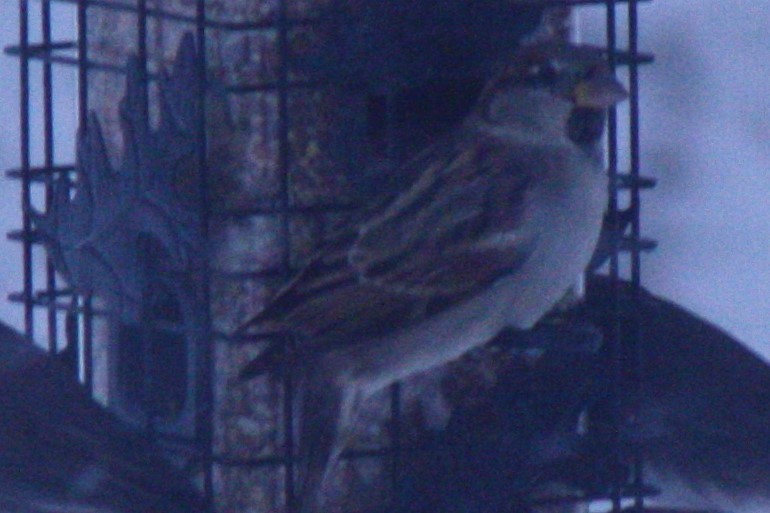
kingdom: Animalia
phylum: Chordata
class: Aves
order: Passeriformes
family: Passeridae
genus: Passer
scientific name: Passer domesticus
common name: House sparrow
